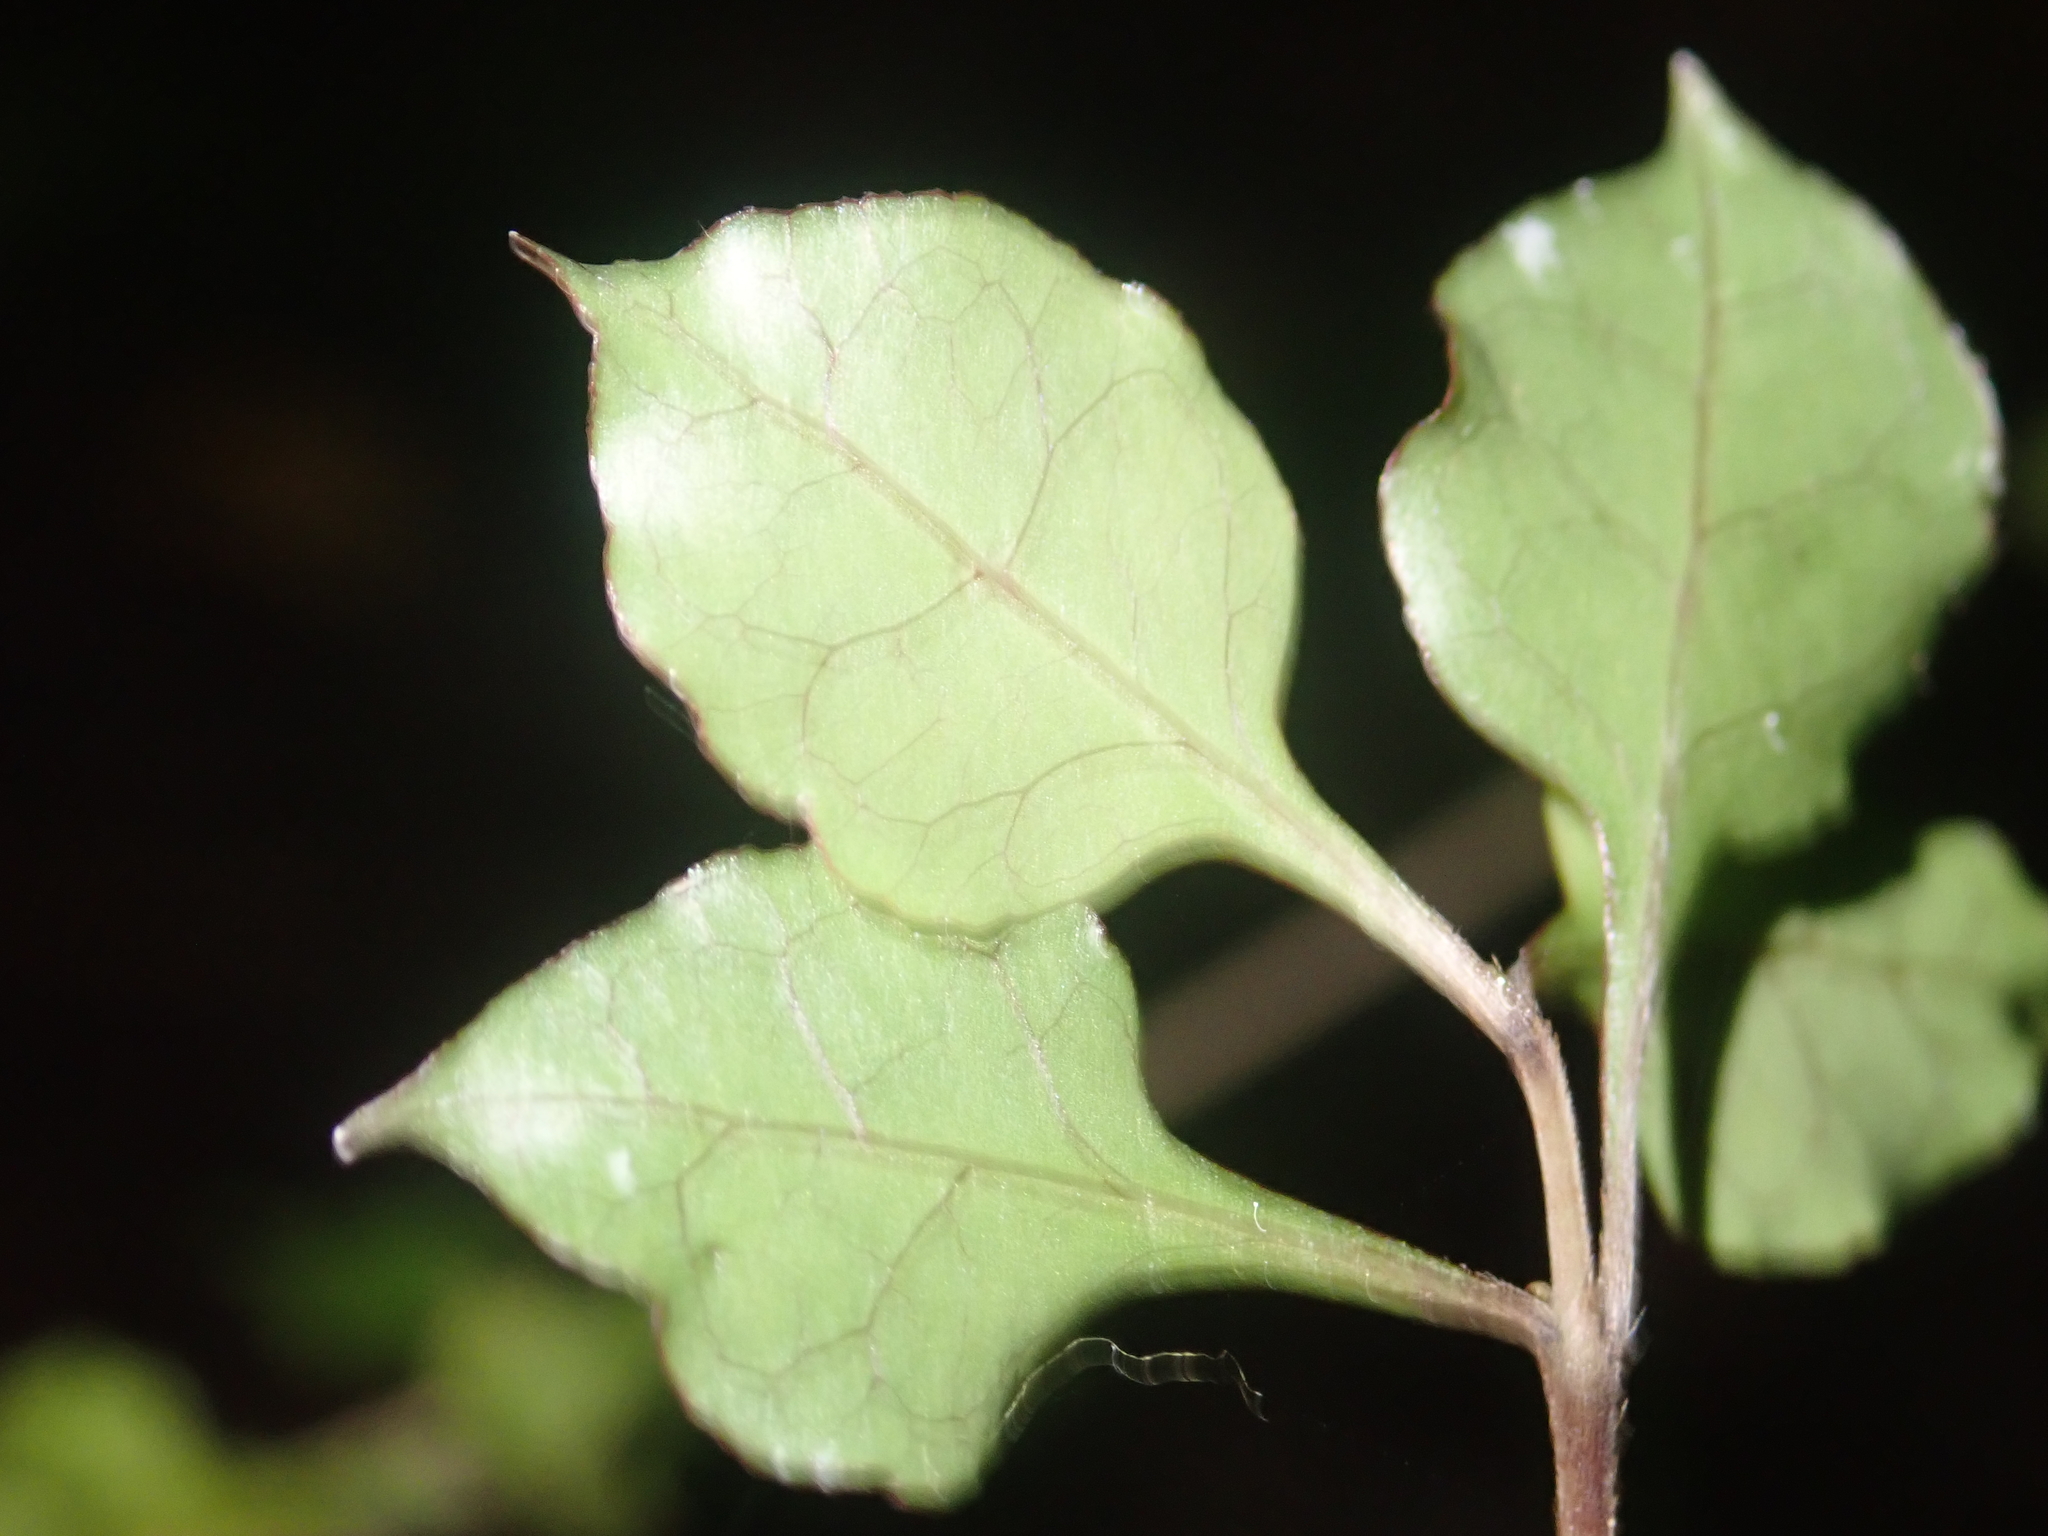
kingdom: Plantae
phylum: Tracheophyta
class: Magnoliopsida
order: Gentianales
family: Rubiaceae
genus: Coprosma
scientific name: Coprosma areolata
